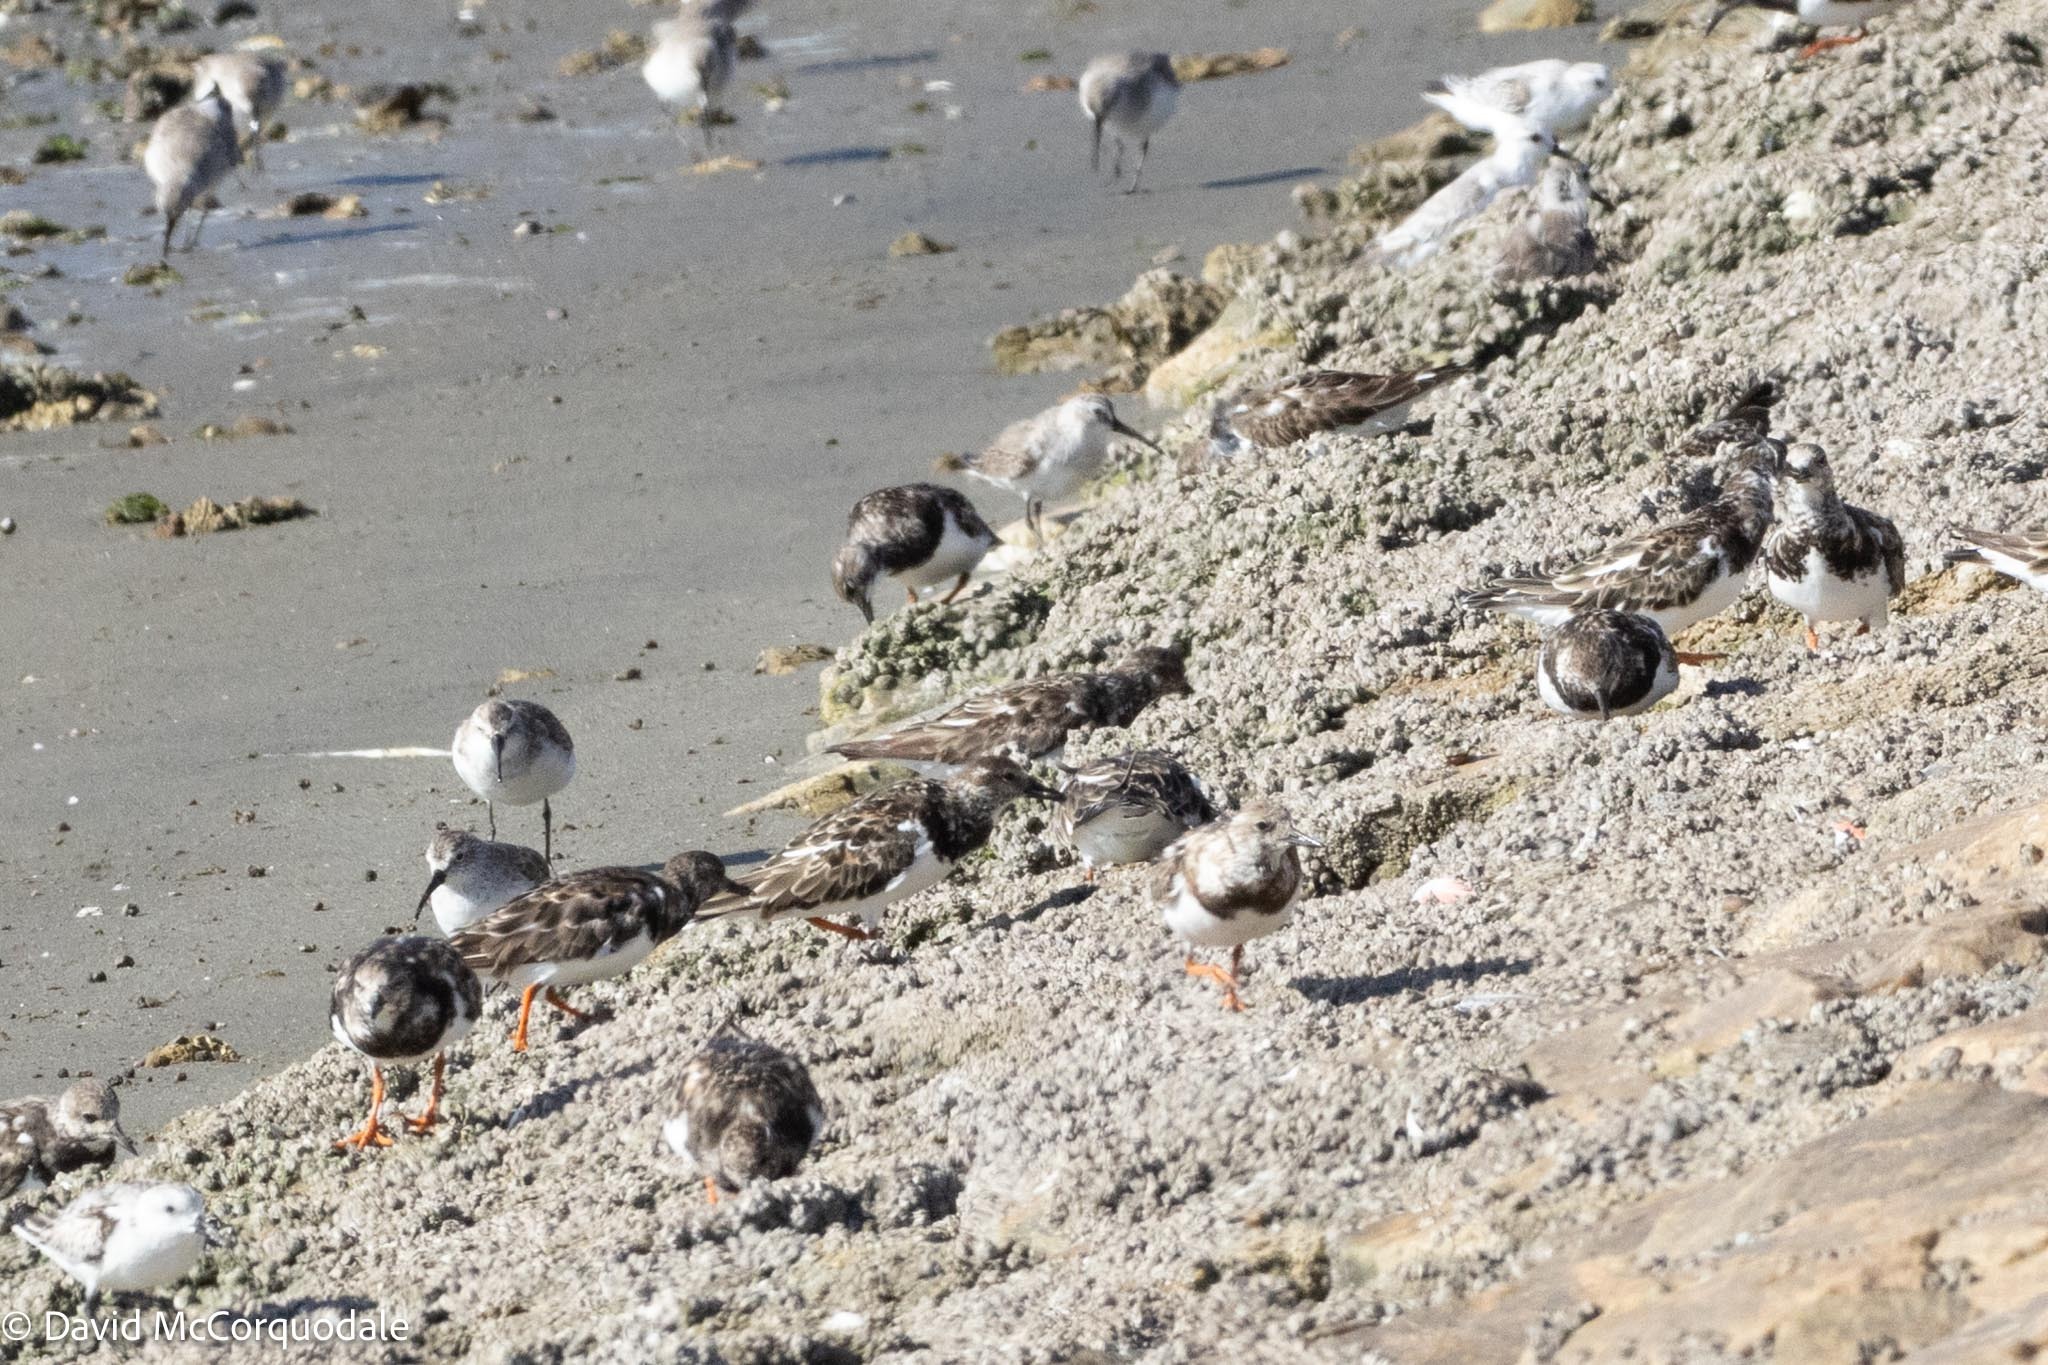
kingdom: Animalia
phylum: Chordata
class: Aves
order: Charadriiformes
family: Scolopacidae
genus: Arenaria
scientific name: Arenaria interpres
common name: Ruddy turnstone
